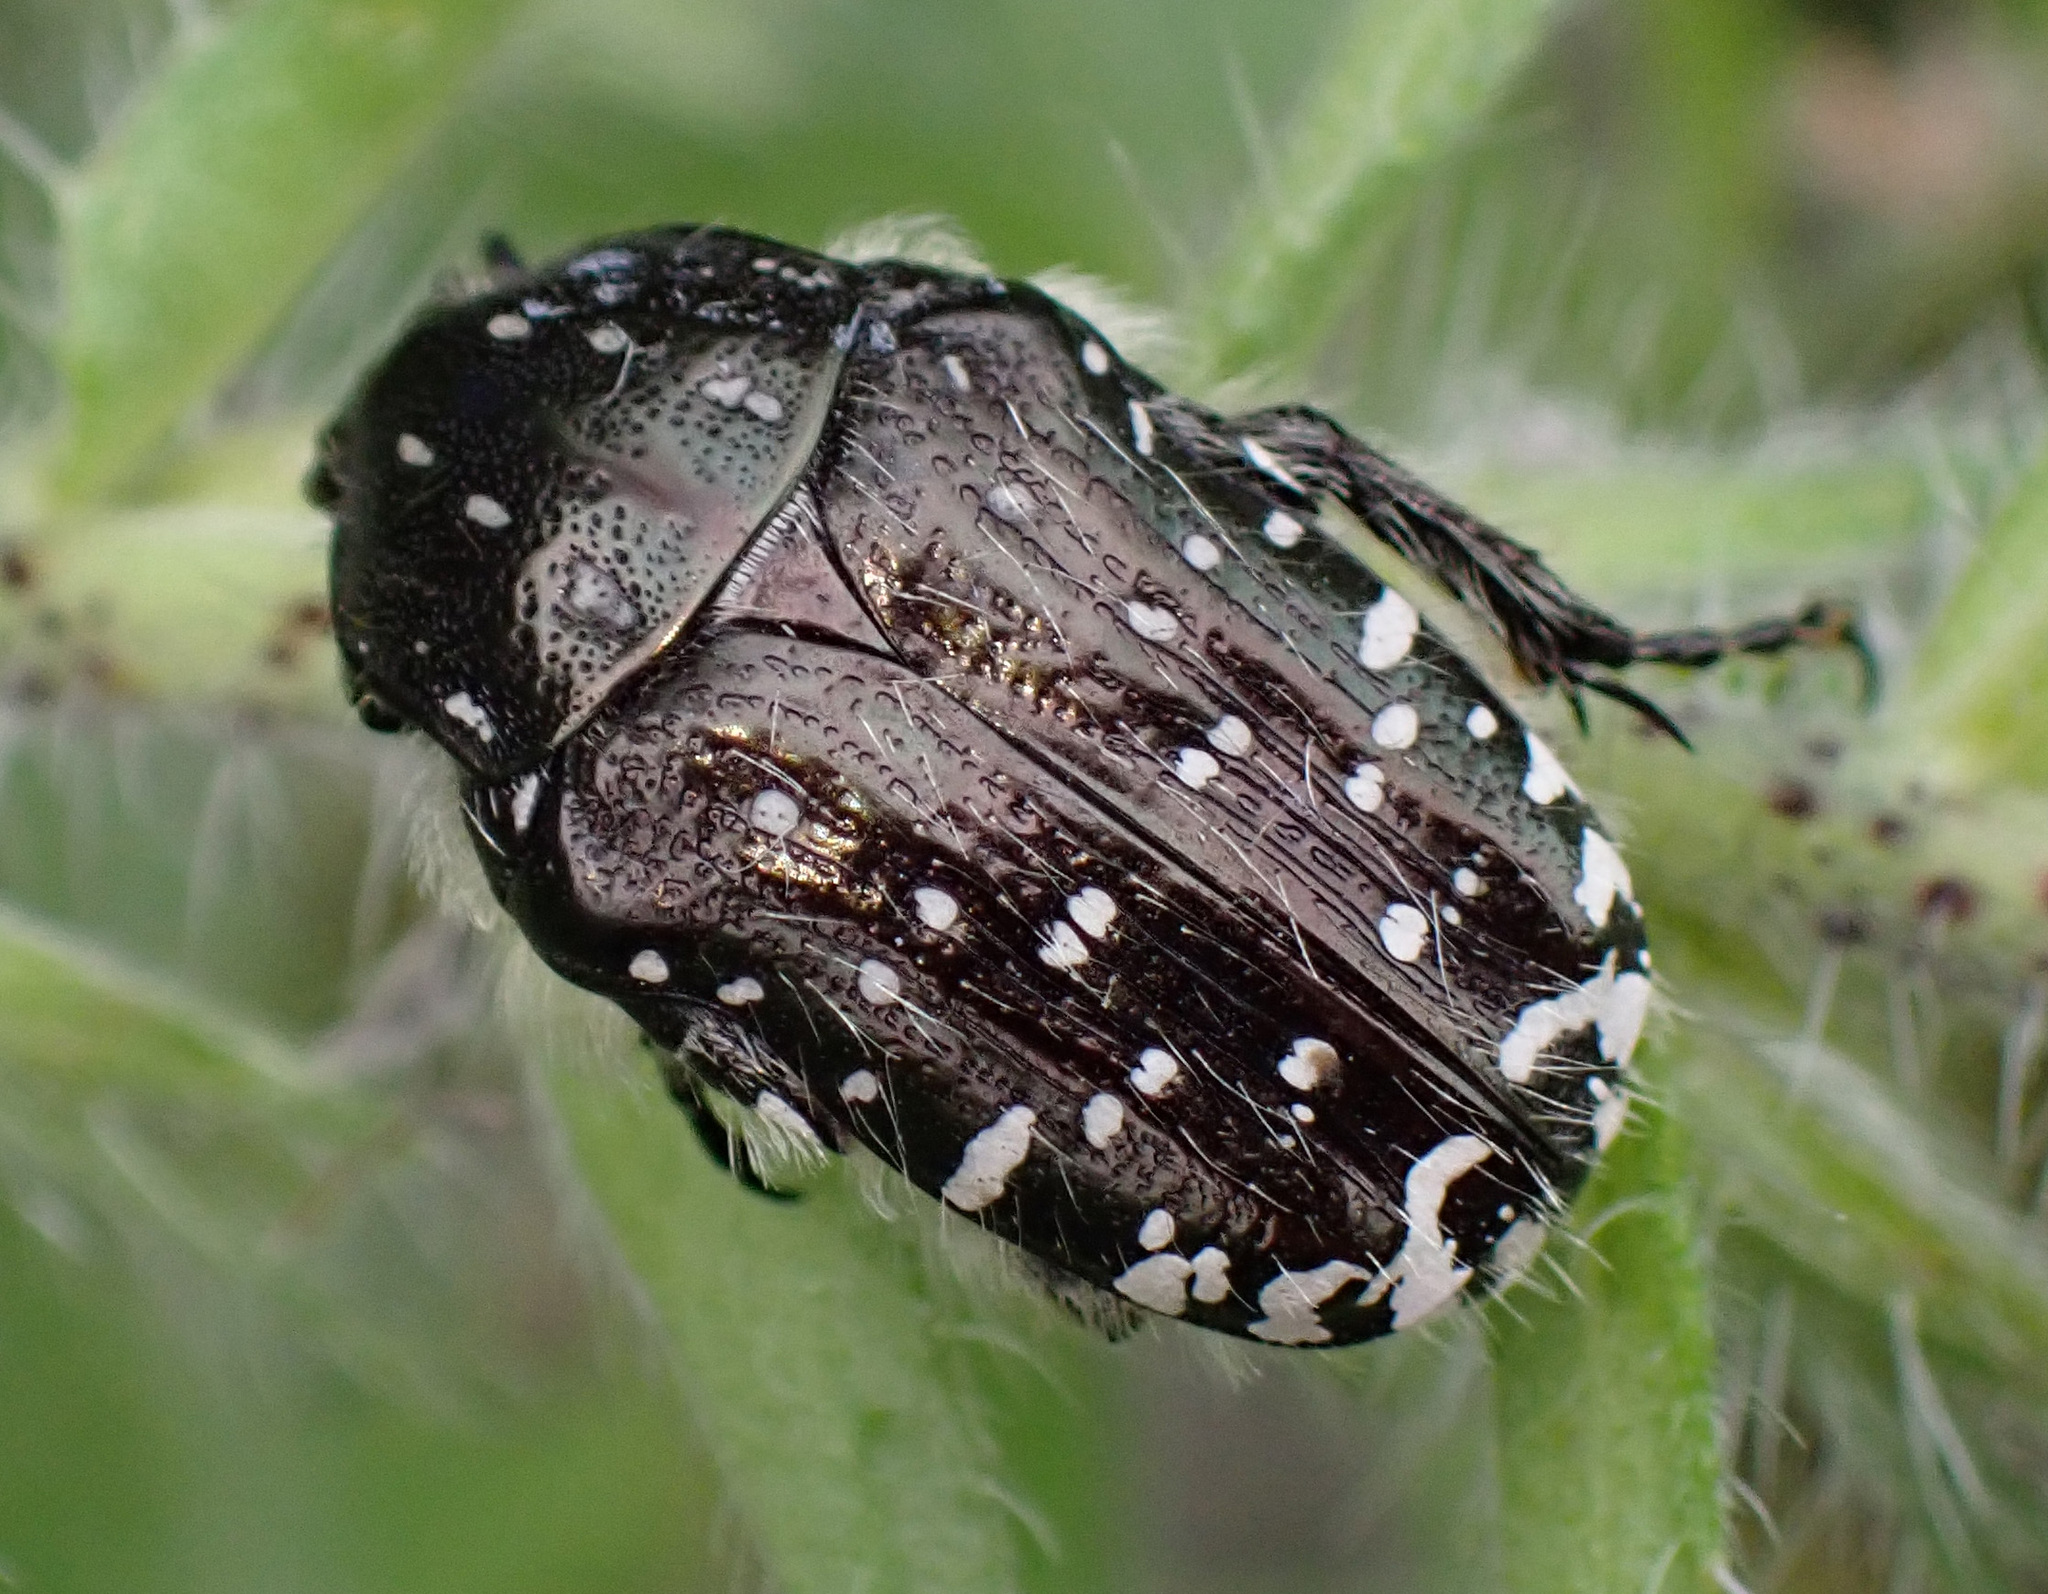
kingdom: Animalia
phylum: Arthropoda
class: Insecta
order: Coleoptera
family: Scarabaeidae
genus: Oxythyrea
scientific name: Oxythyrea funesta
